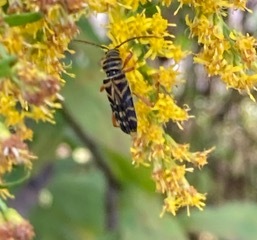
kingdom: Animalia
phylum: Arthropoda
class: Insecta
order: Coleoptera
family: Cerambycidae
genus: Megacyllene
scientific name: Megacyllene robiniae
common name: Locust borer
